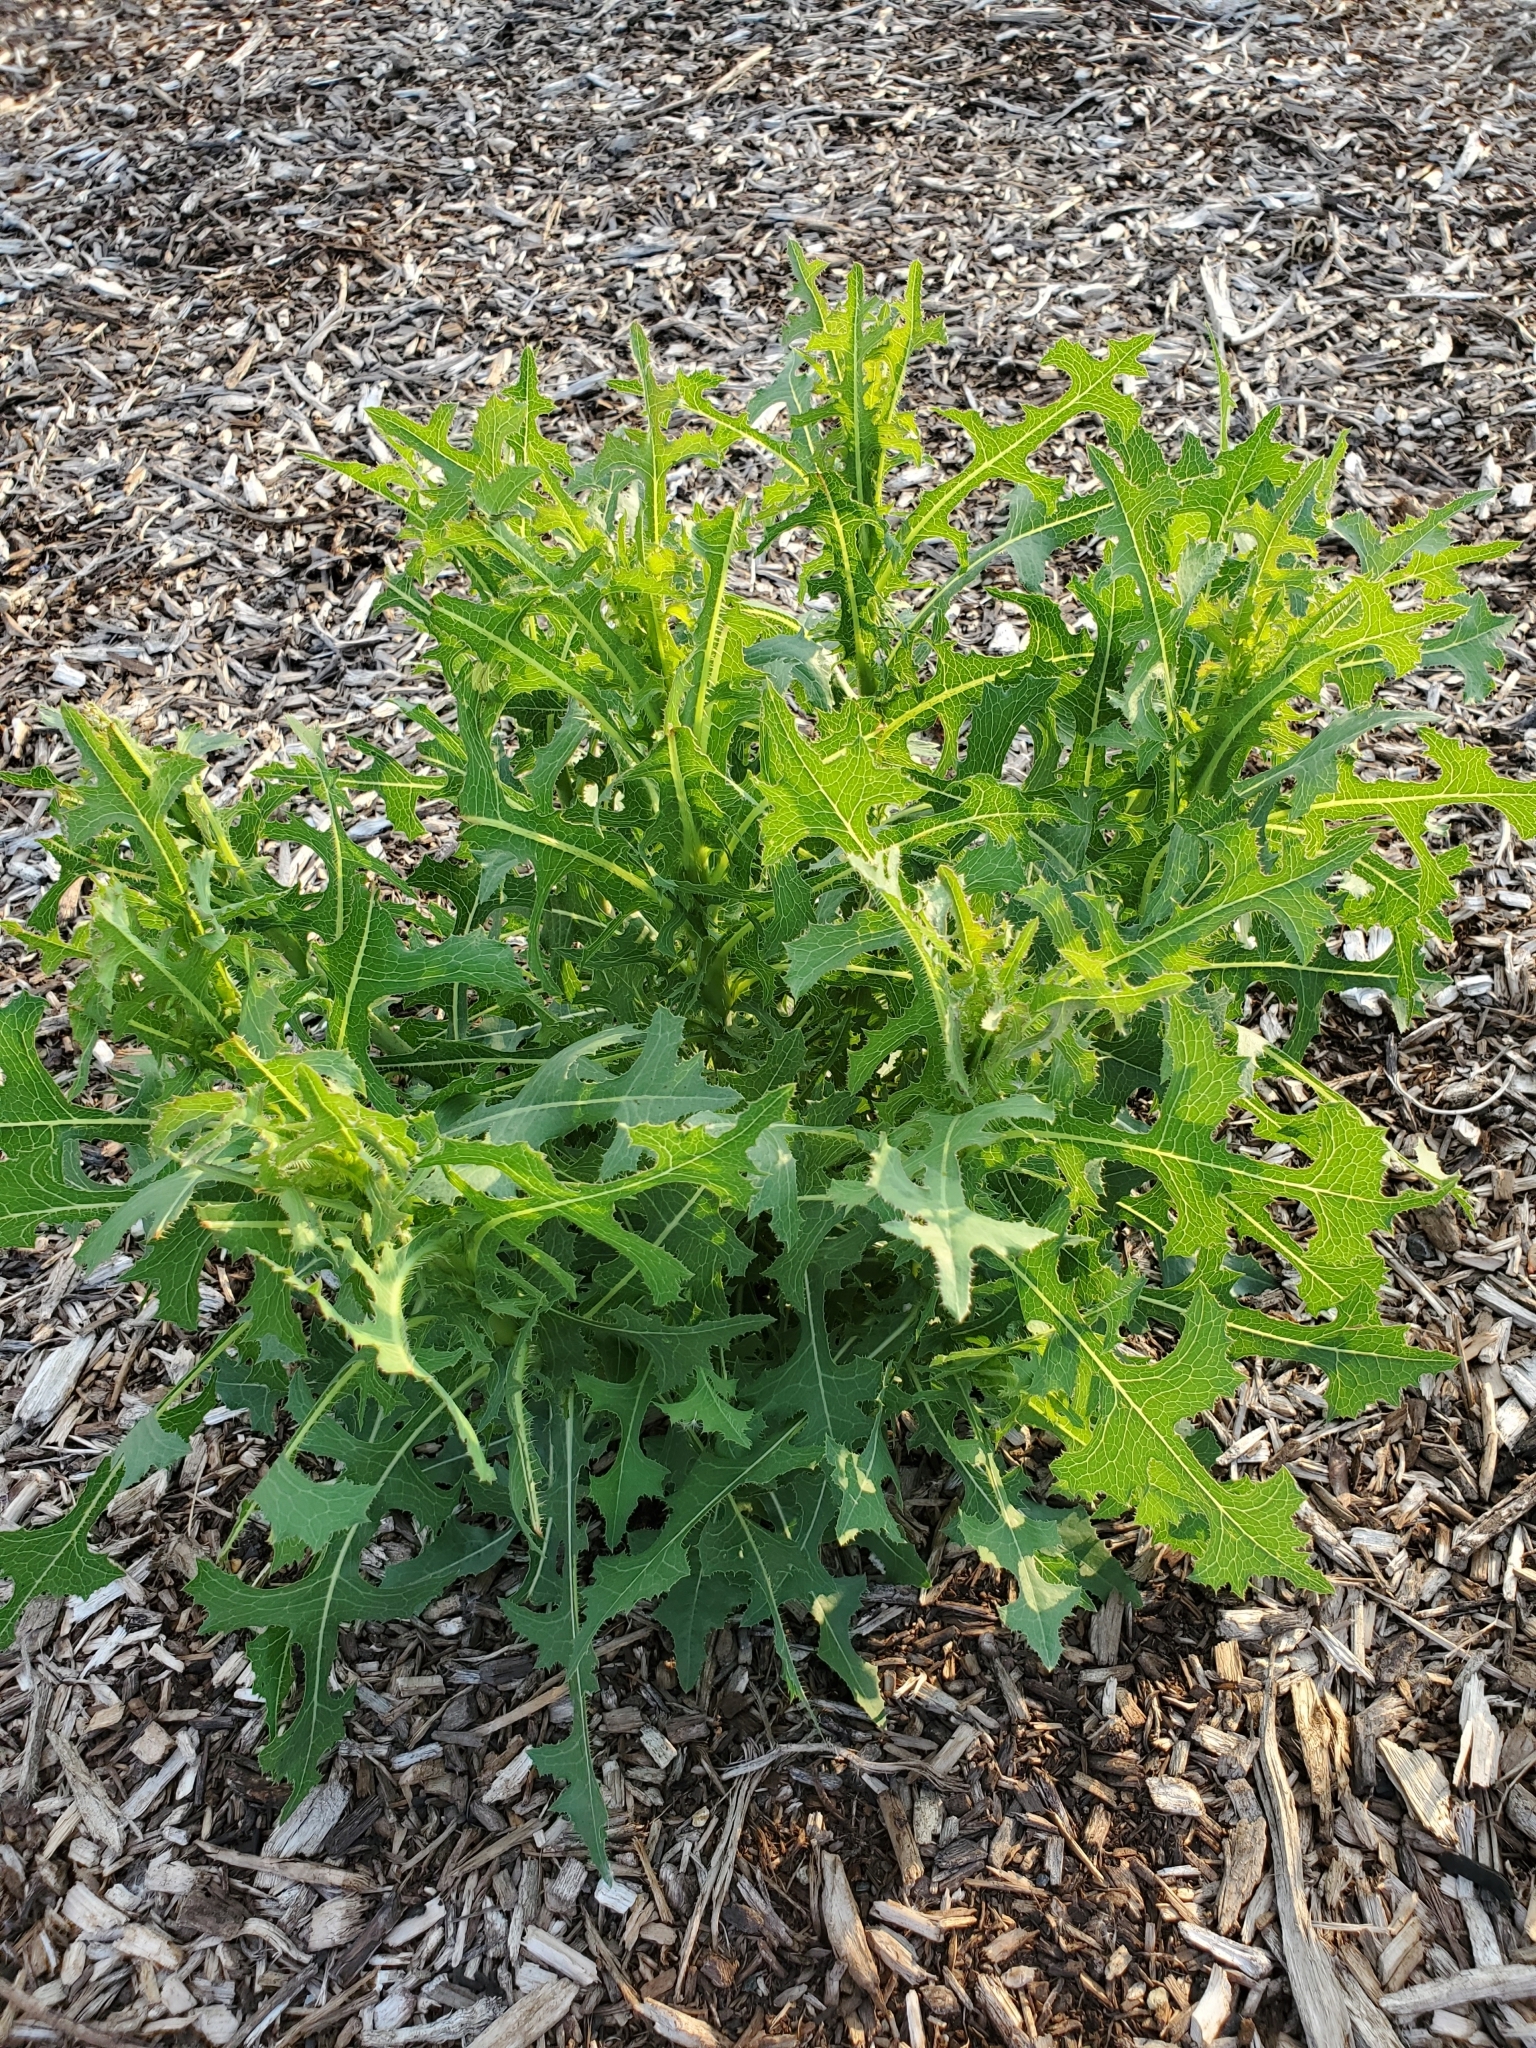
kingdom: Plantae
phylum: Tracheophyta
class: Magnoliopsida
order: Asterales
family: Asteraceae
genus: Lactuca
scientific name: Lactuca serriola
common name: Prickly lettuce
